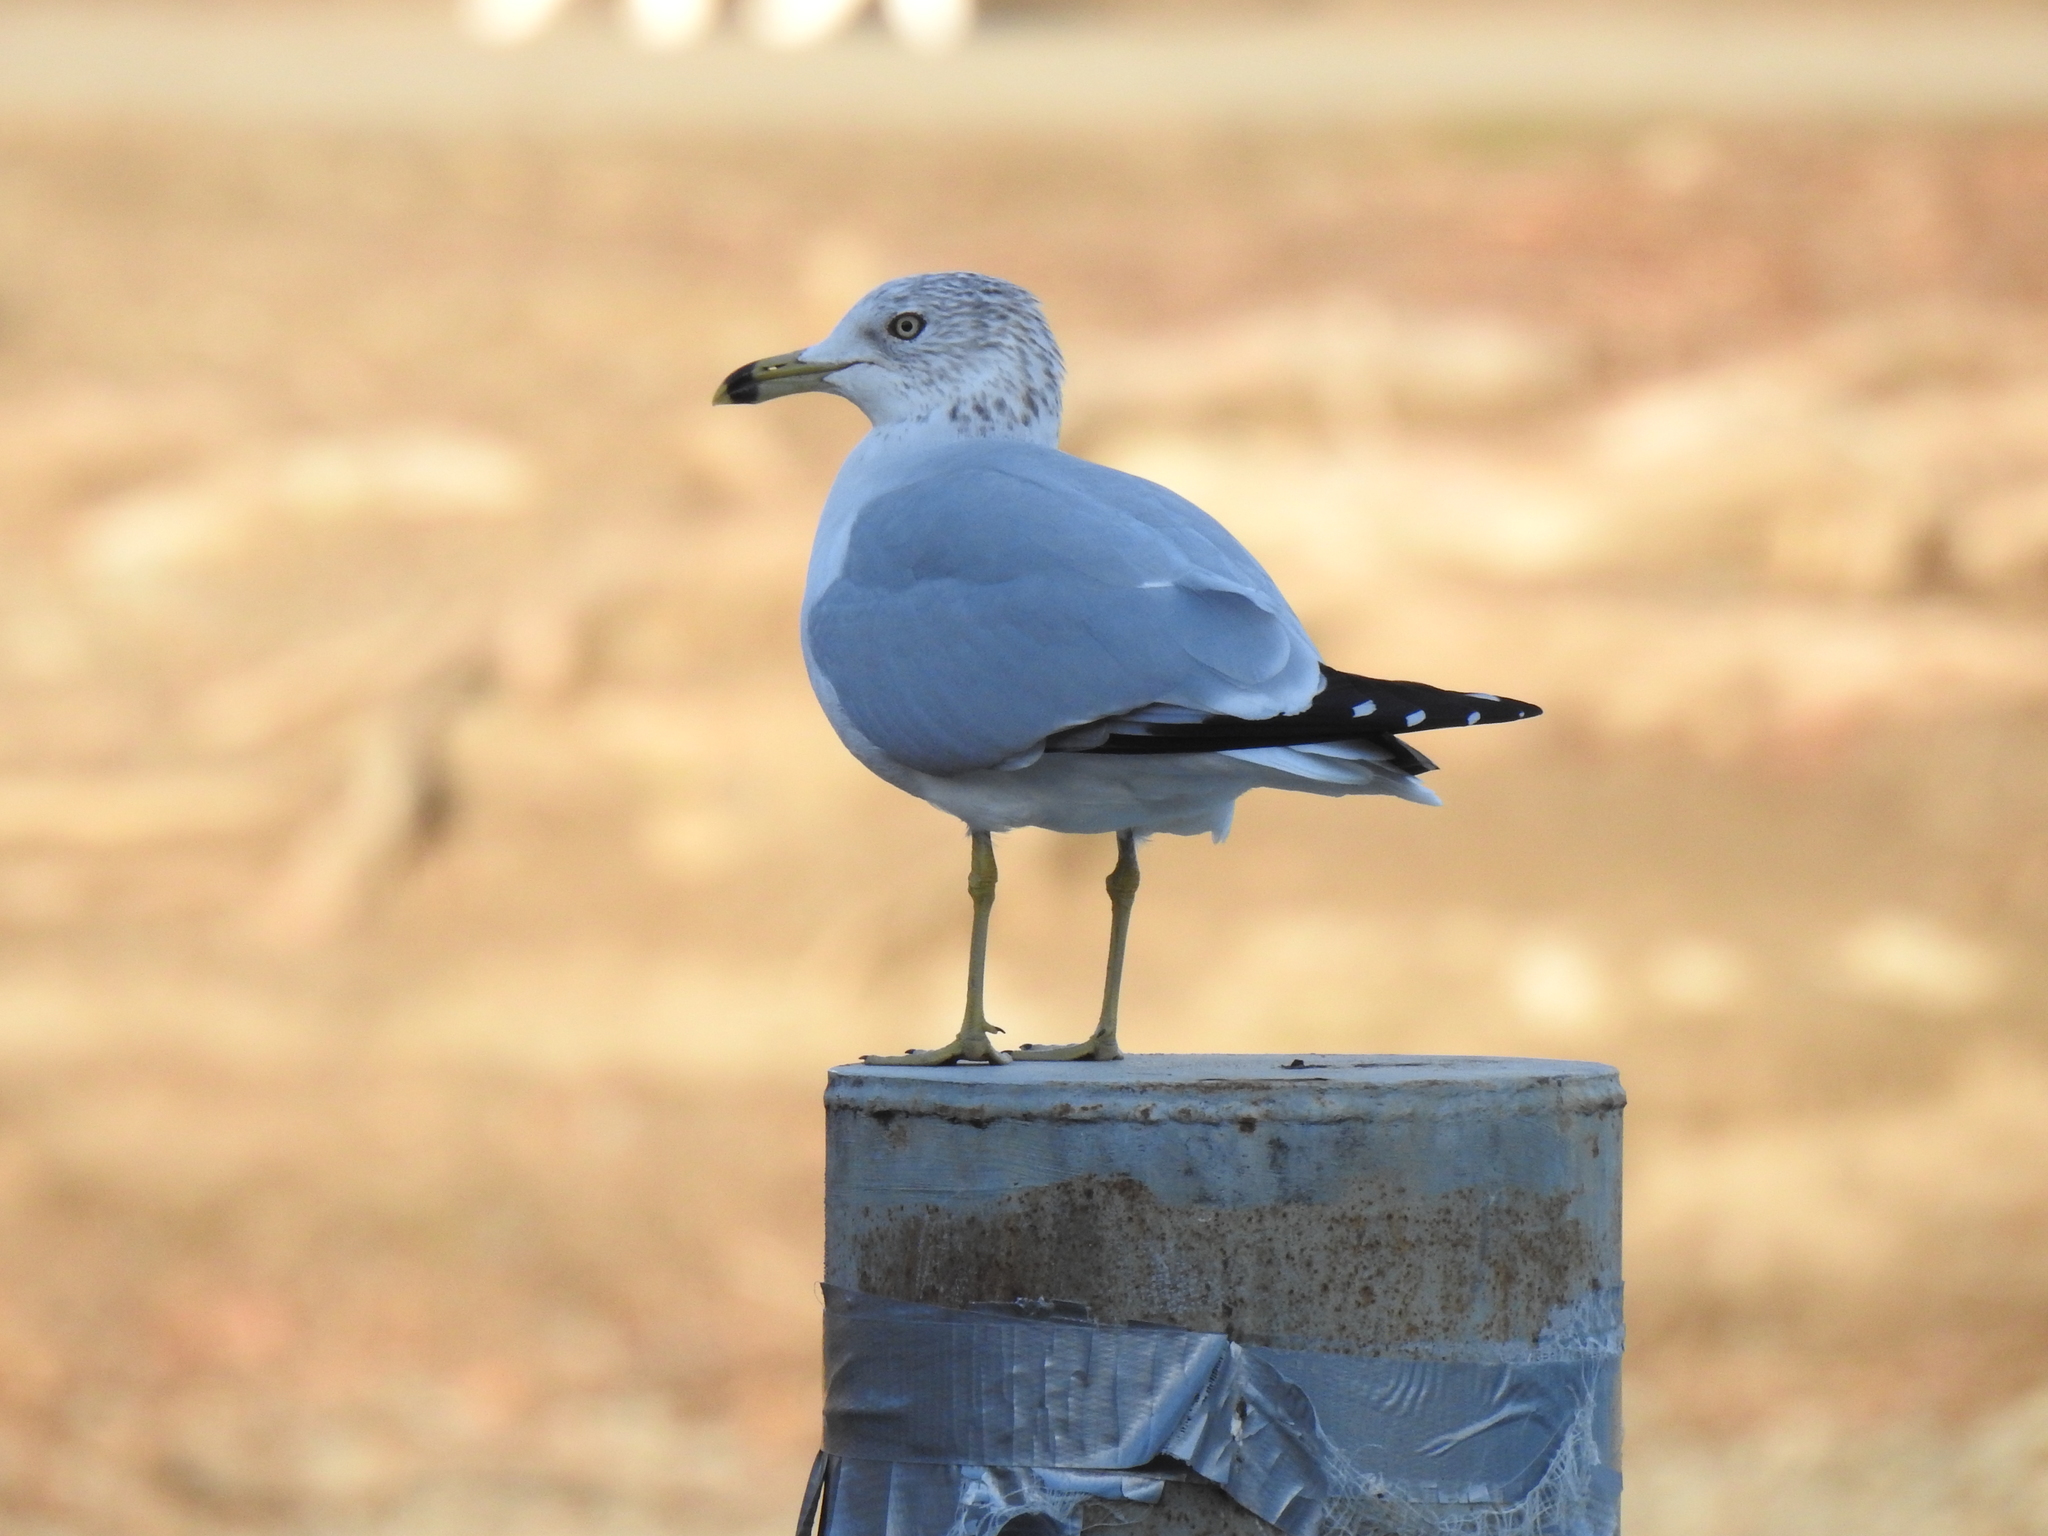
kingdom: Animalia
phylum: Chordata
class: Aves
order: Charadriiformes
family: Laridae
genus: Larus
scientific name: Larus delawarensis
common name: Ring-billed gull
